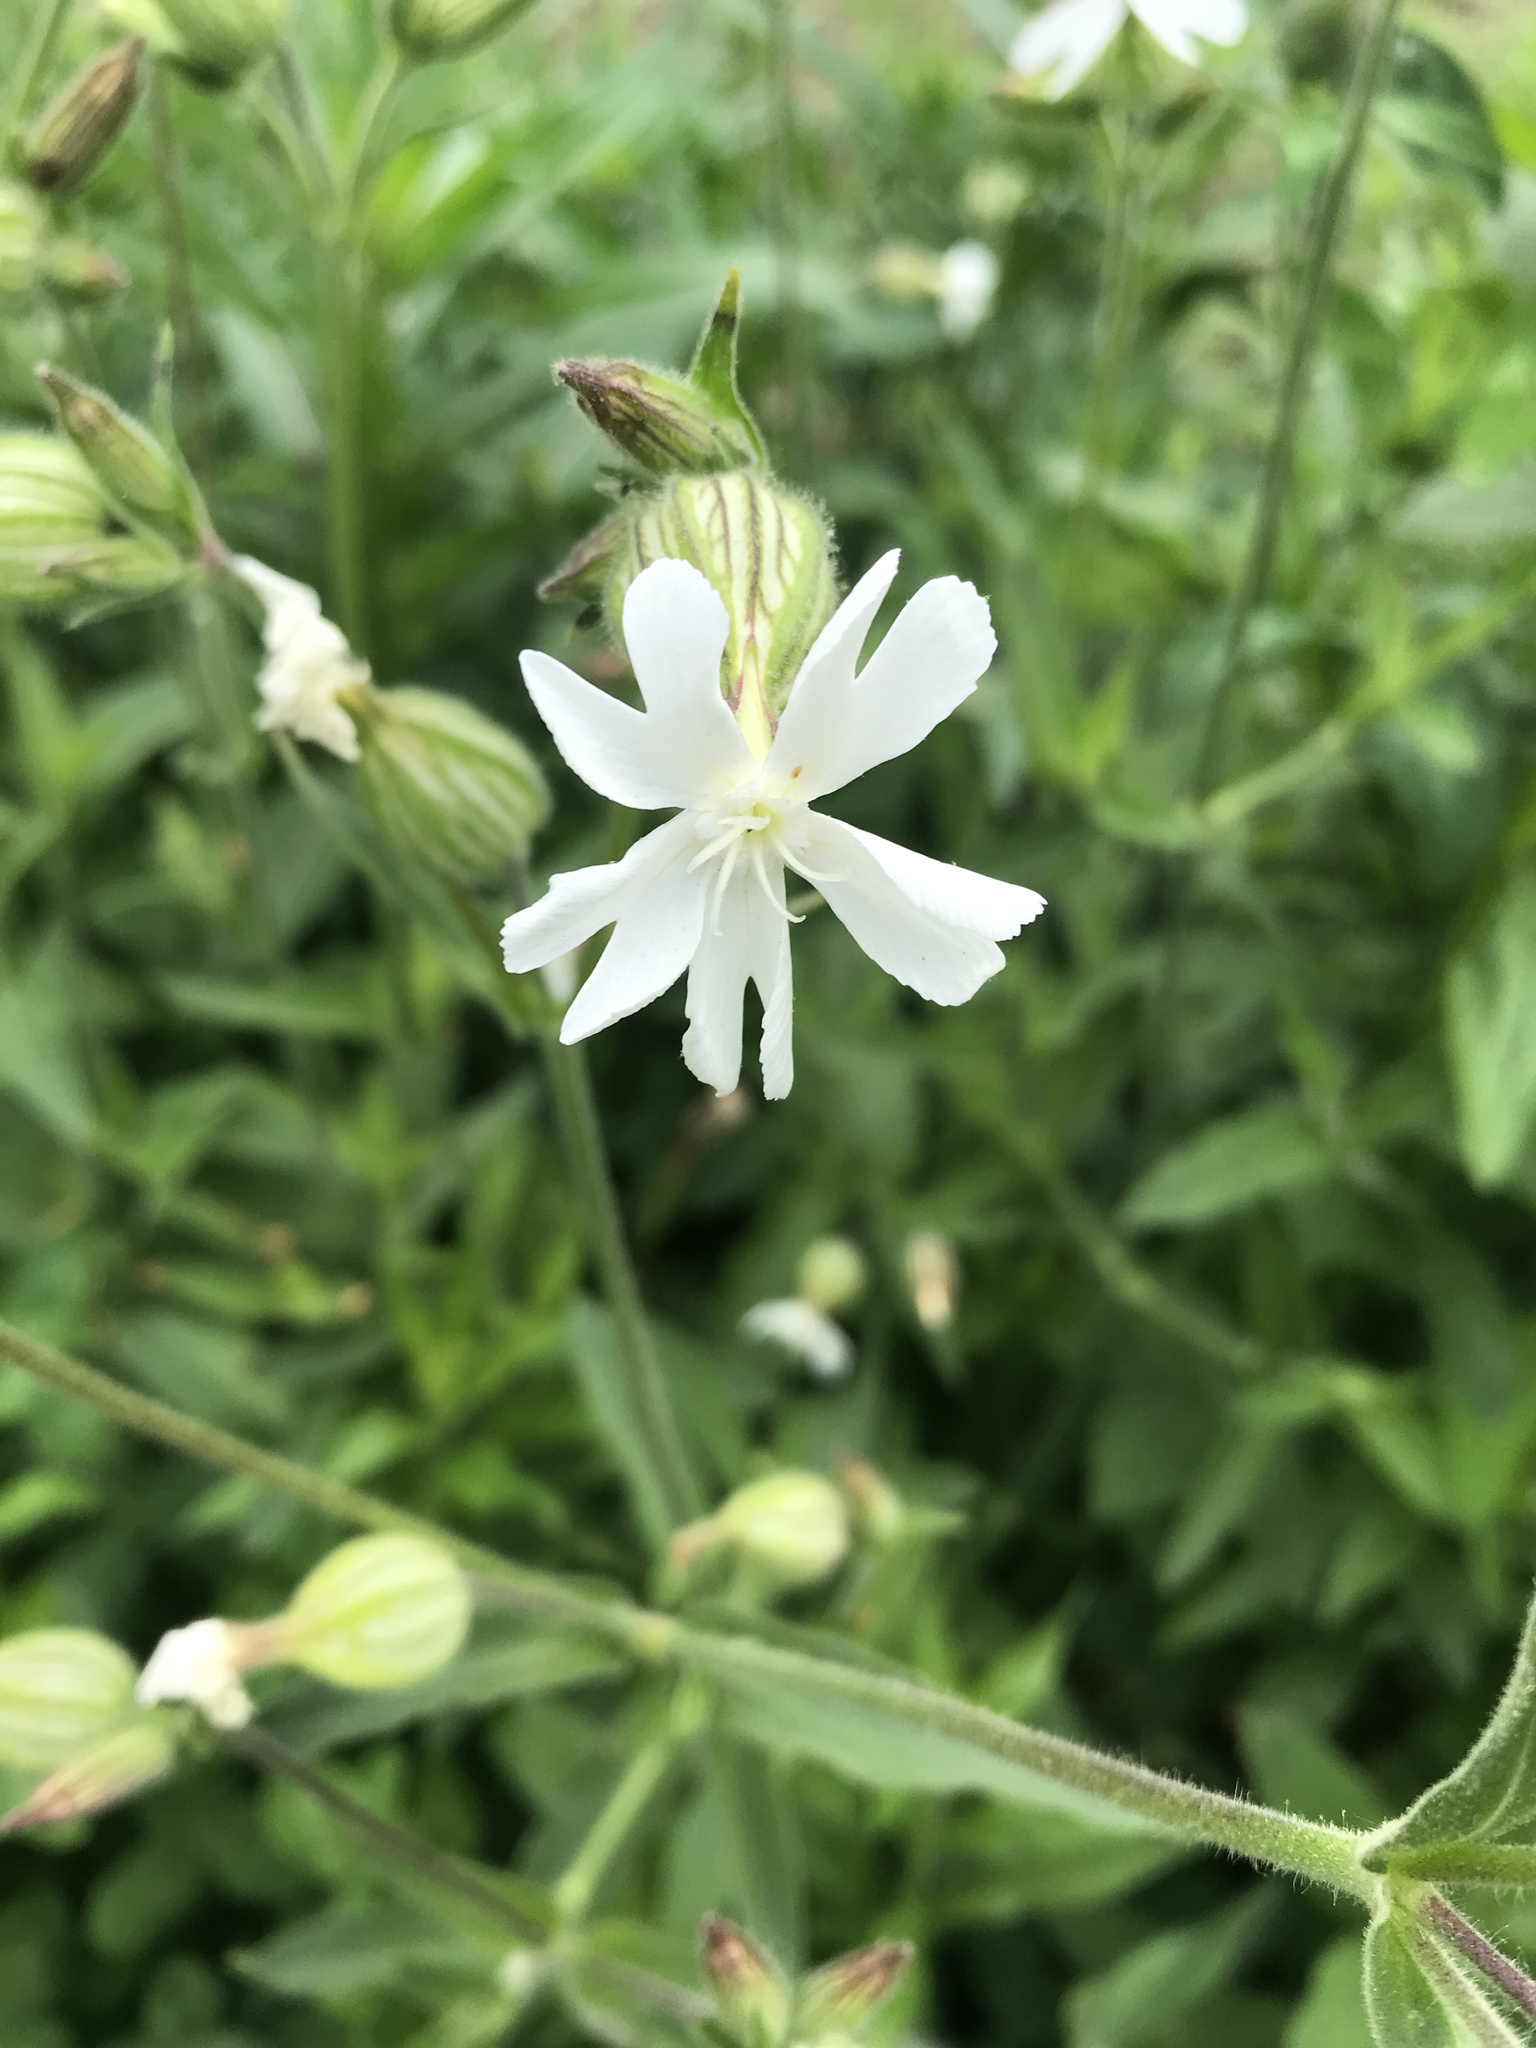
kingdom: Plantae
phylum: Tracheophyta
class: Magnoliopsida
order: Caryophyllales
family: Caryophyllaceae
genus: Silene
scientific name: Silene latifolia
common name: White campion
